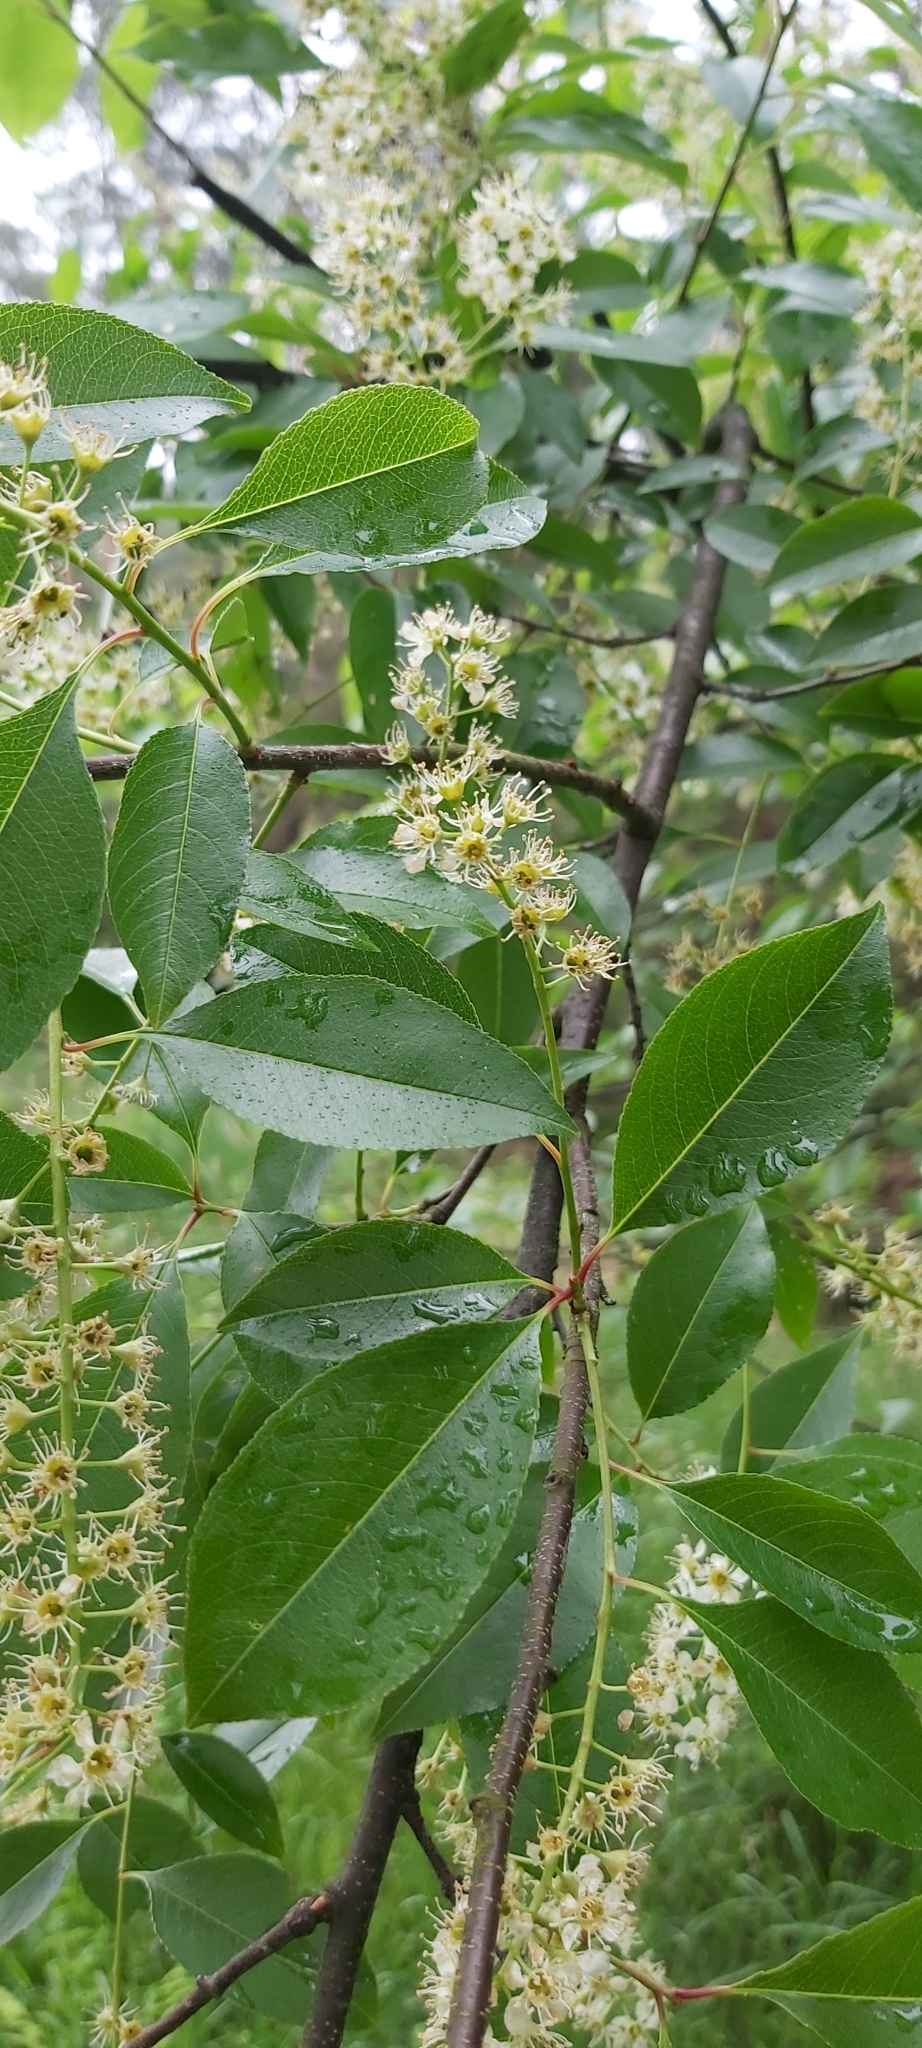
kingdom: Plantae
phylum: Tracheophyta
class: Magnoliopsida
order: Rosales
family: Rosaceae
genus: Prunus
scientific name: Prunus serotina
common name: Black cherry
